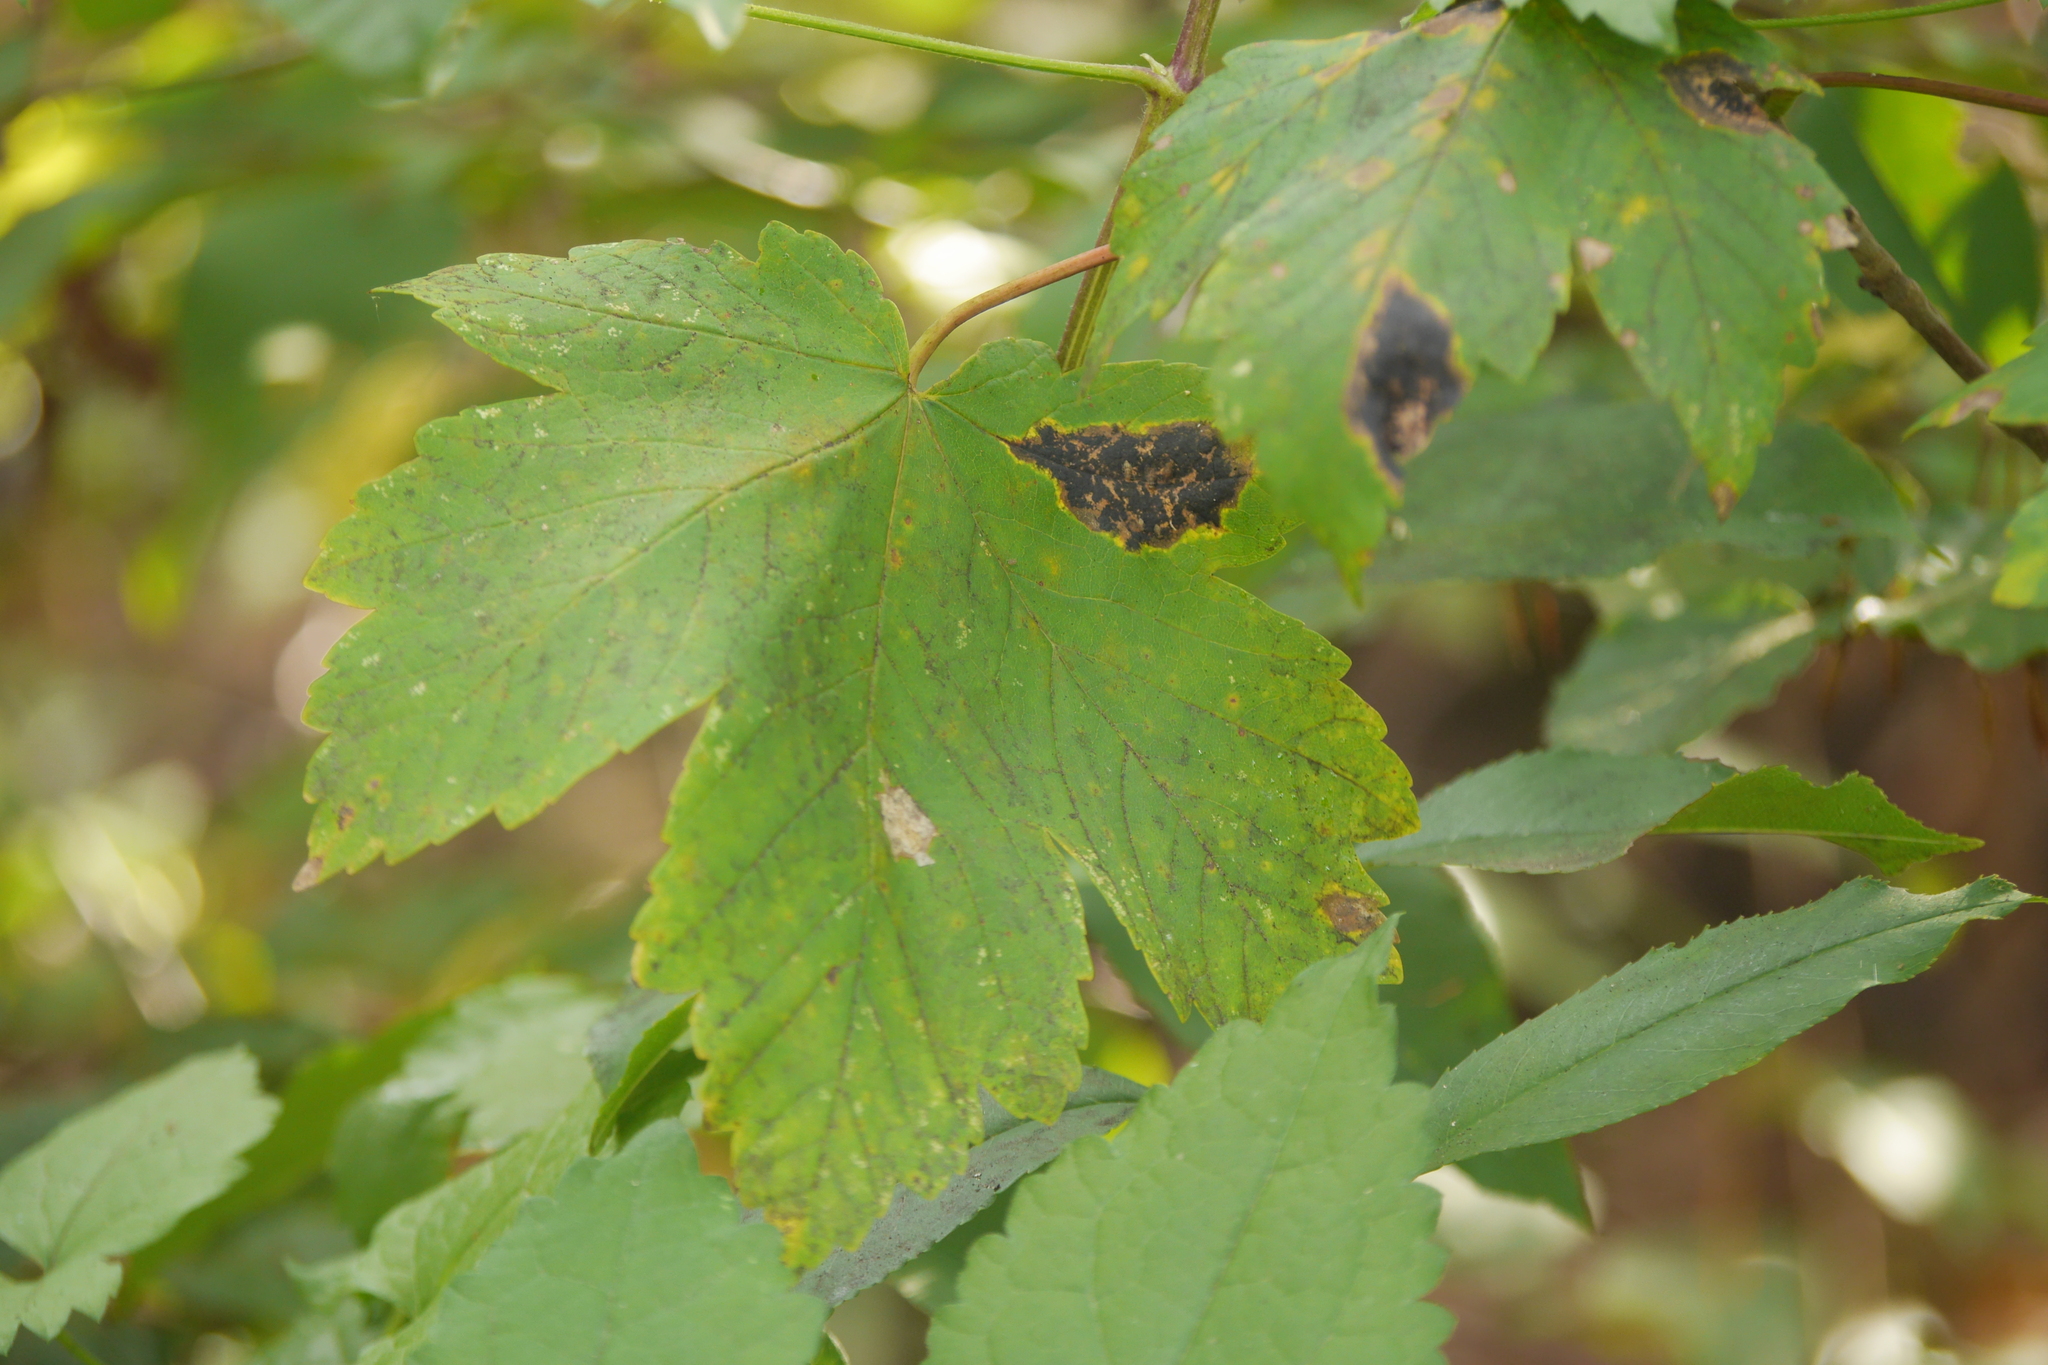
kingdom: Fungi
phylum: Ascomycota
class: Leotiomycetes
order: Rhytismatales
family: Rhytismataceae
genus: Rhytisma
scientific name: Rhytisma acerinum
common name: European tar spot
